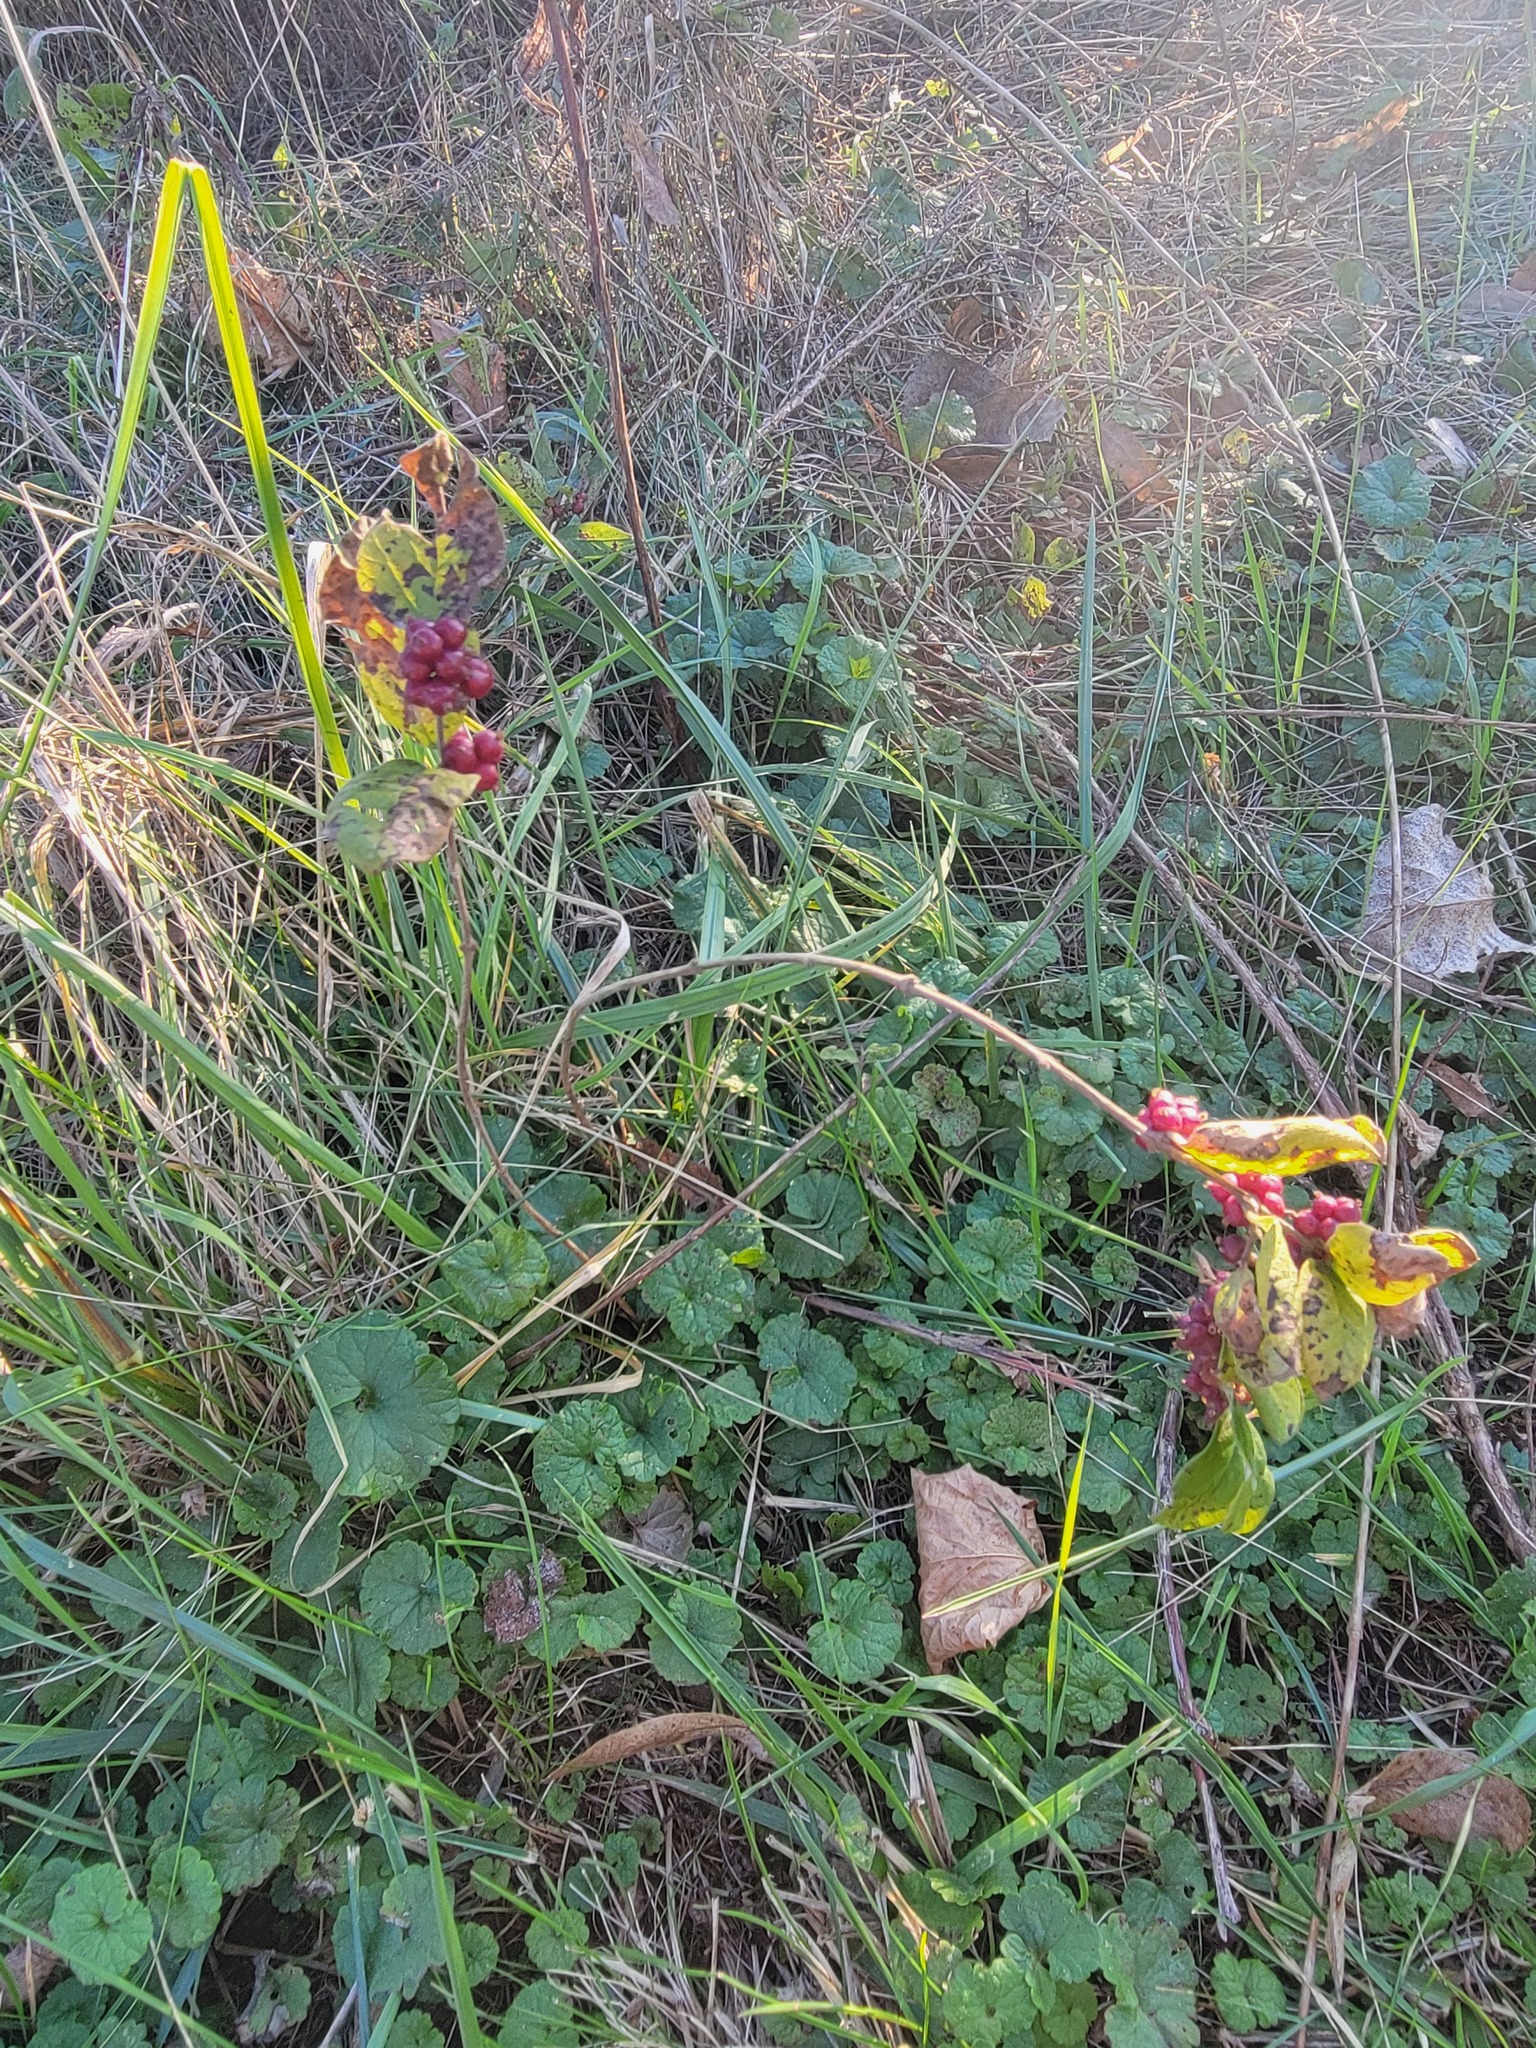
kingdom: Plantae
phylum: Tracheophyta
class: Magnoliopsida
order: Dipsacales
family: Caprifoliaceae
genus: Symphoricarpos
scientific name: Symphoricarpos orbiculatus
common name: Coralberry
